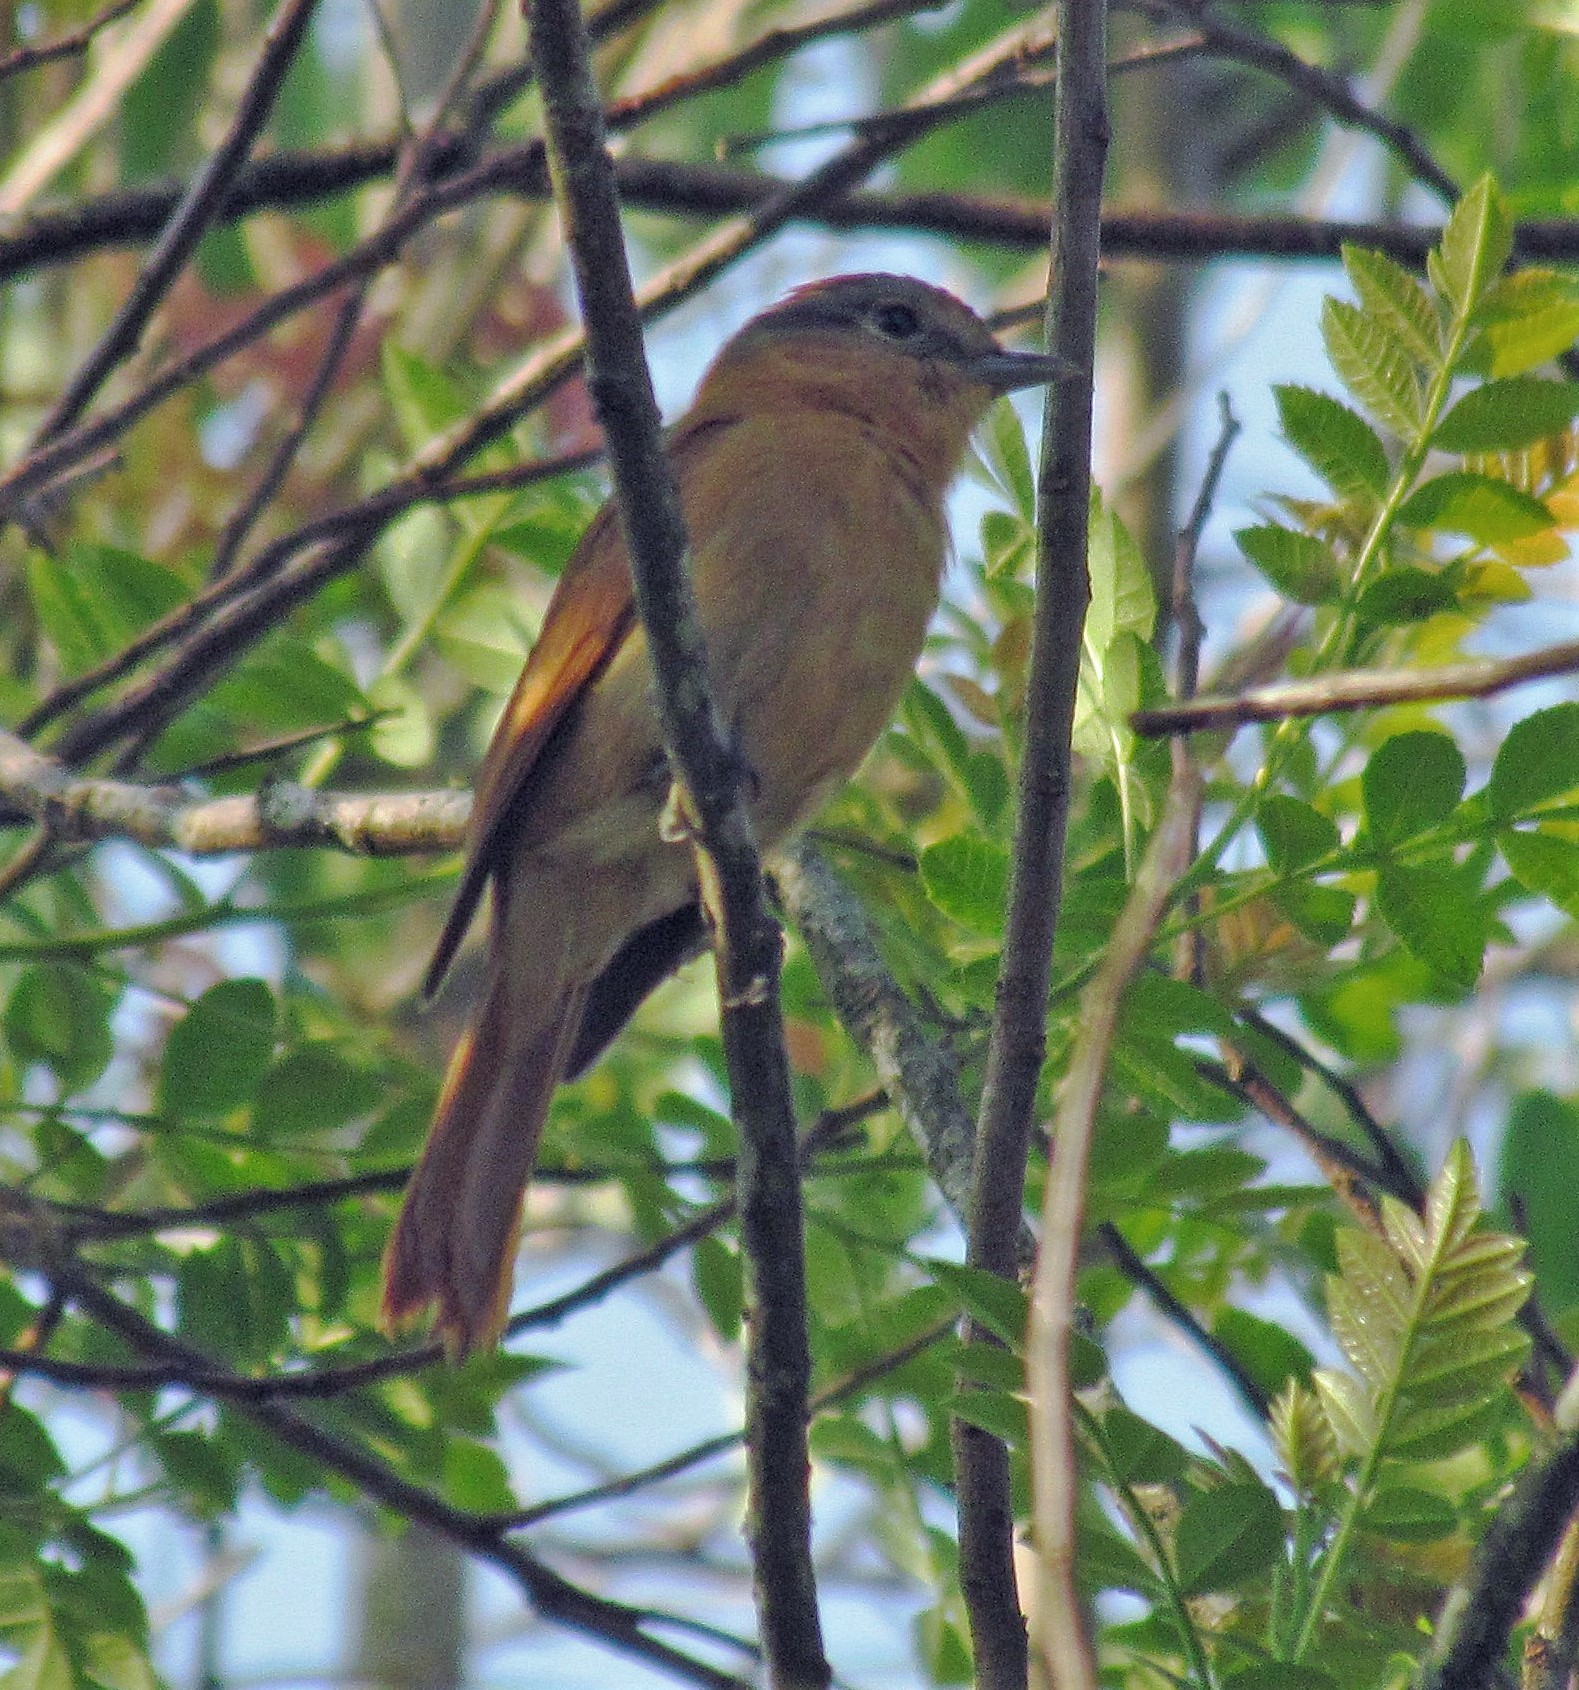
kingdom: Animalia
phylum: Chordata
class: Aves
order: Passeriformes
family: Cotingidae
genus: Pachyramphus
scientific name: Pachyramphus castaneus
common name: Chestnut-crowned becard
